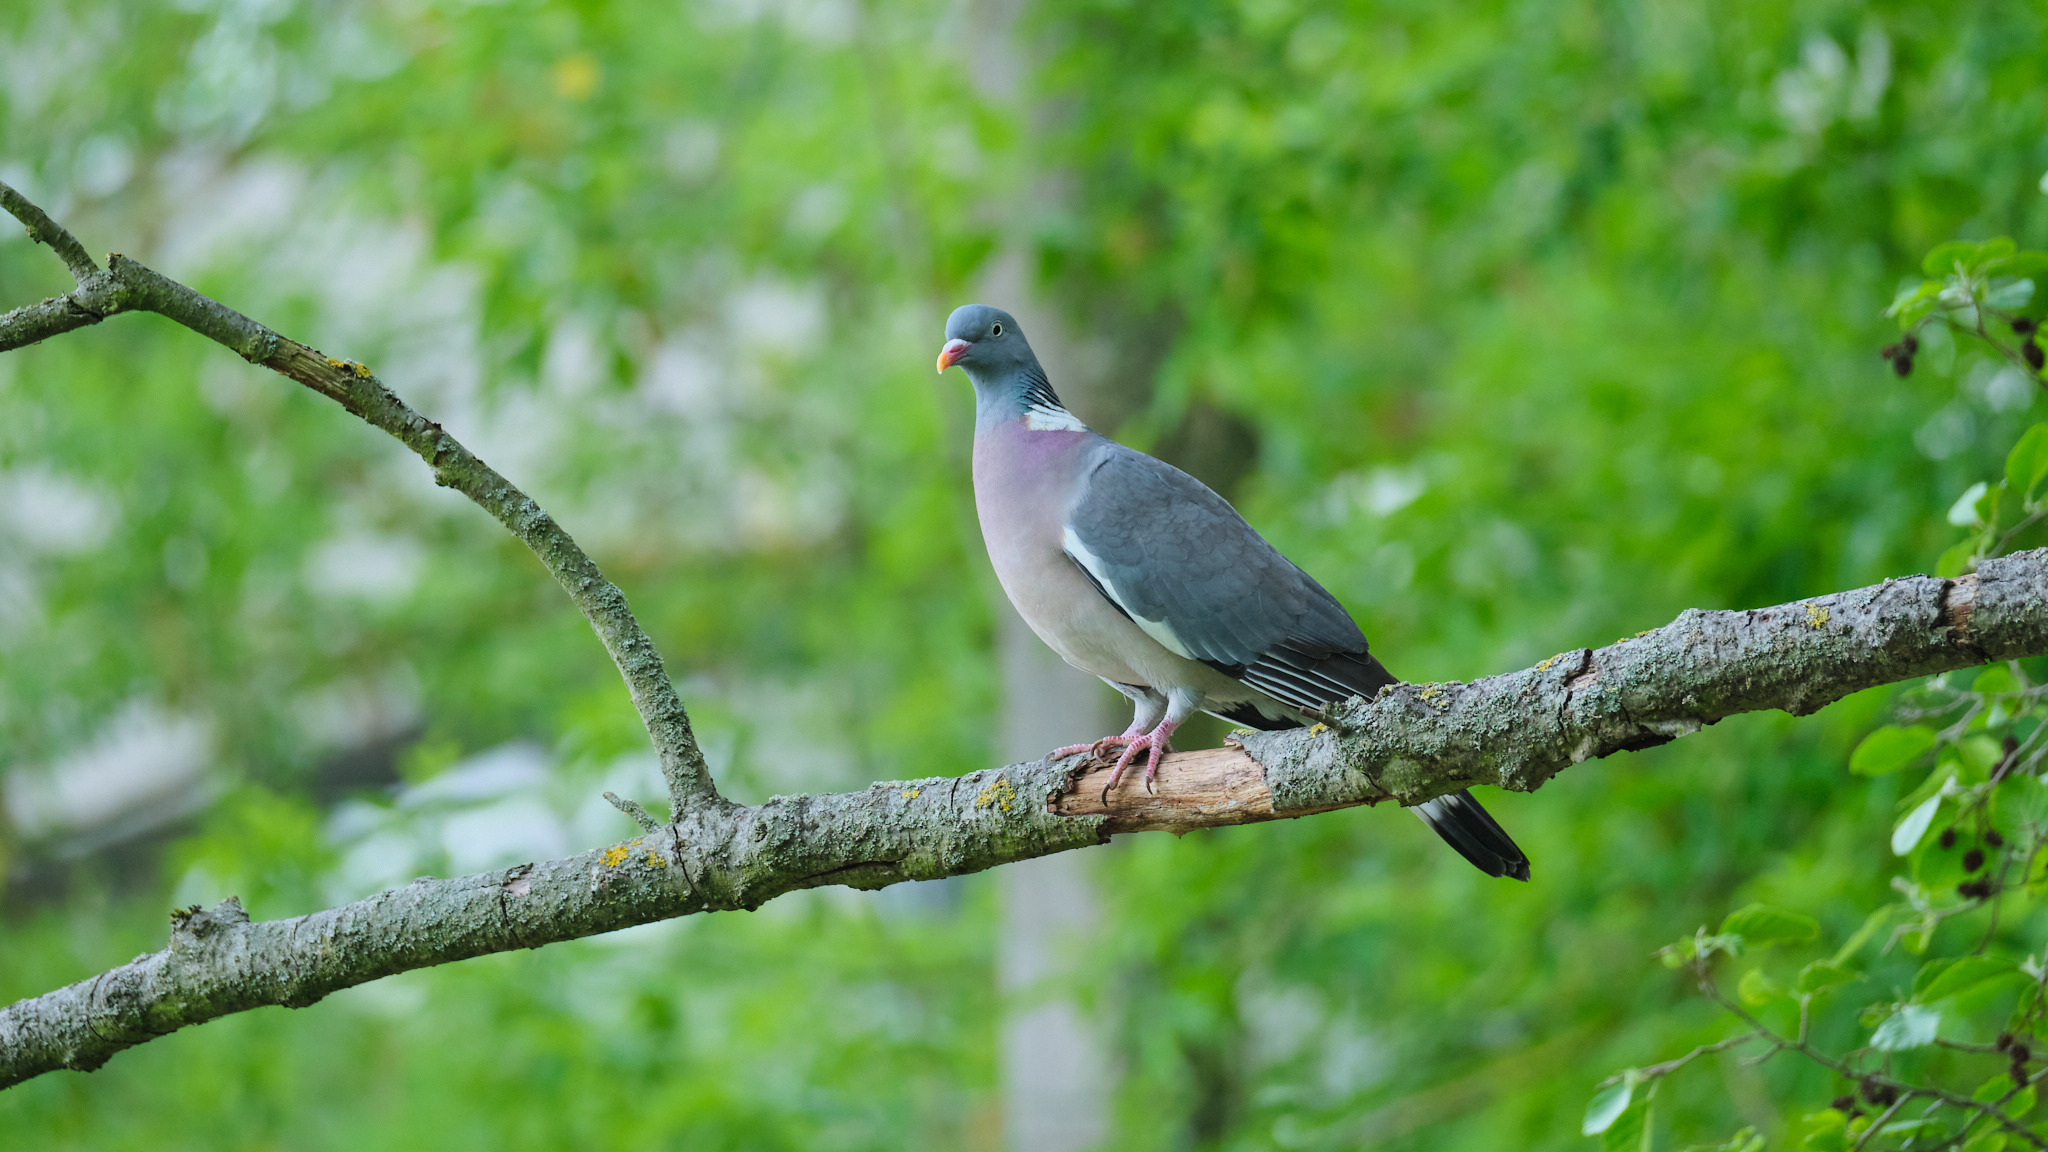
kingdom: Animalia
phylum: Chordata
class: Aves
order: Columbiformes
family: Columbidae
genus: Columba
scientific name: Columba palumbus
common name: Common wood pigeon
